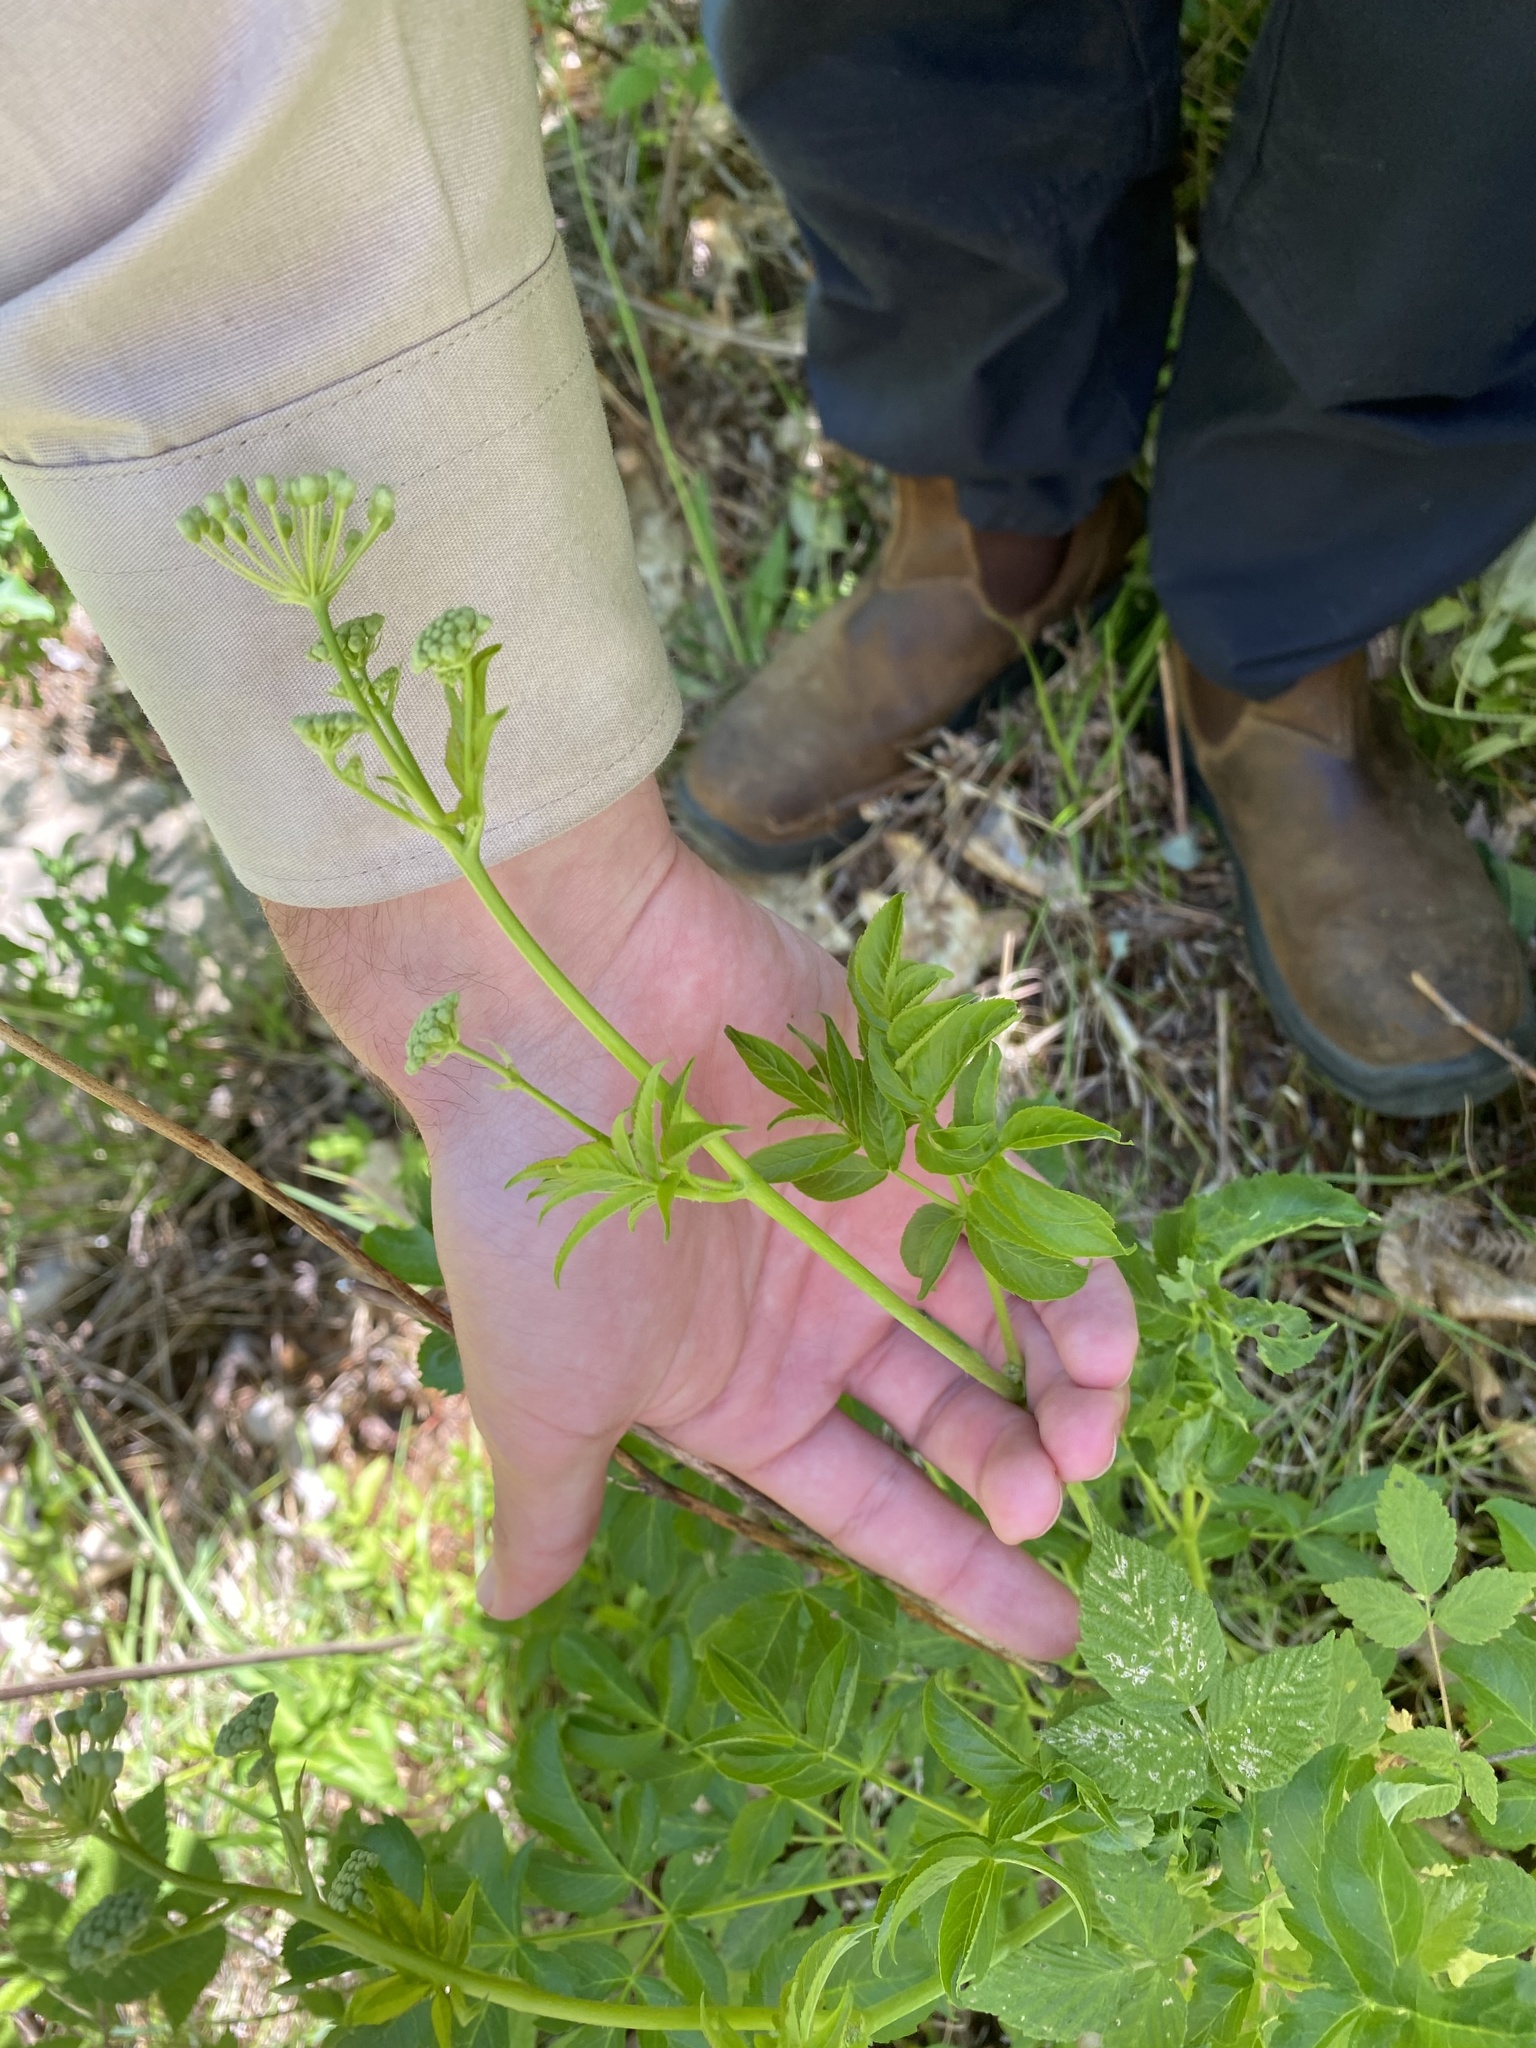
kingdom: Plantae
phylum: Tracheophyta
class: Magnoliopsida
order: Apiales
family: Araliaceae
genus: Aralia
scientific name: Aralia hispida
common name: Bristly sarsaparilla
